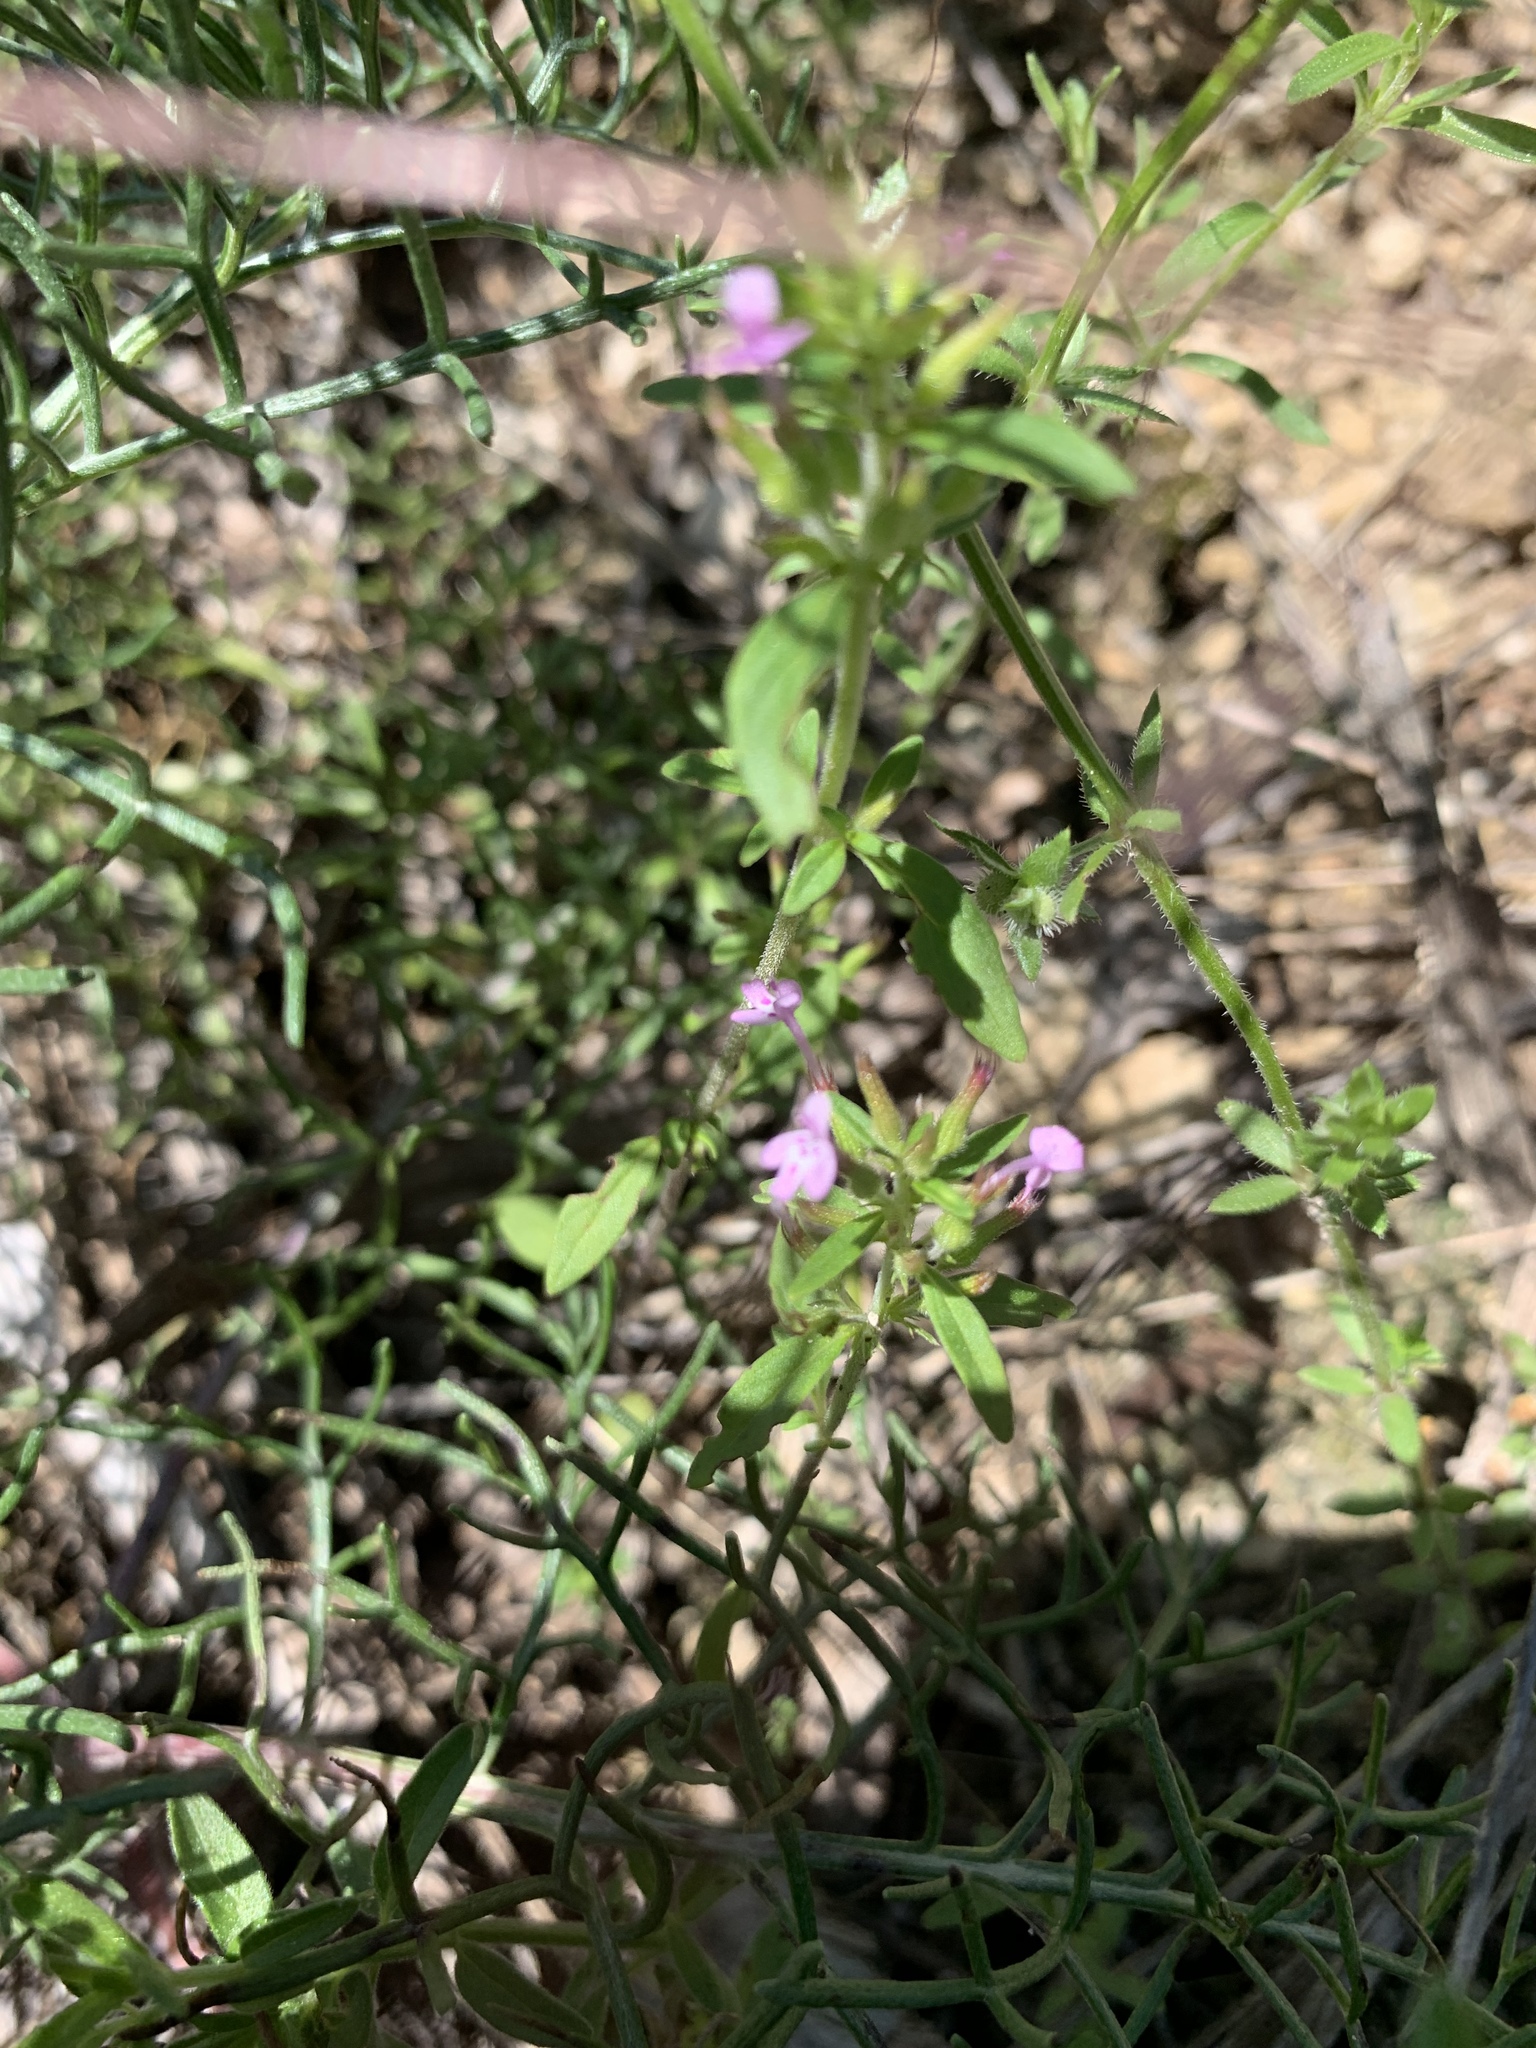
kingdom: Plantae
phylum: Tracheophyta
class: Magnoliopsida
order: Lamiales
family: Lamiaceae
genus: Hedeoma
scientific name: Hedeoma acinoides
